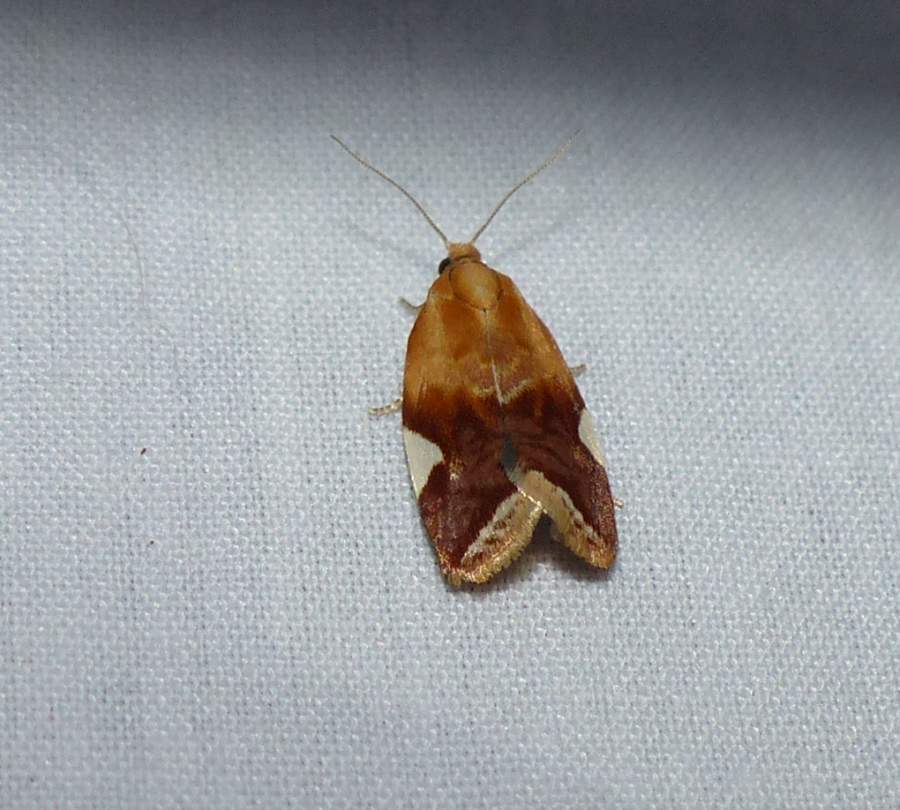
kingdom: Animalia
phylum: Arthropoda
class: Insecta
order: Lepidoptera
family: Tortricidae
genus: Clepsis
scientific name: Clepsis persicana
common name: White triangle tortrix
